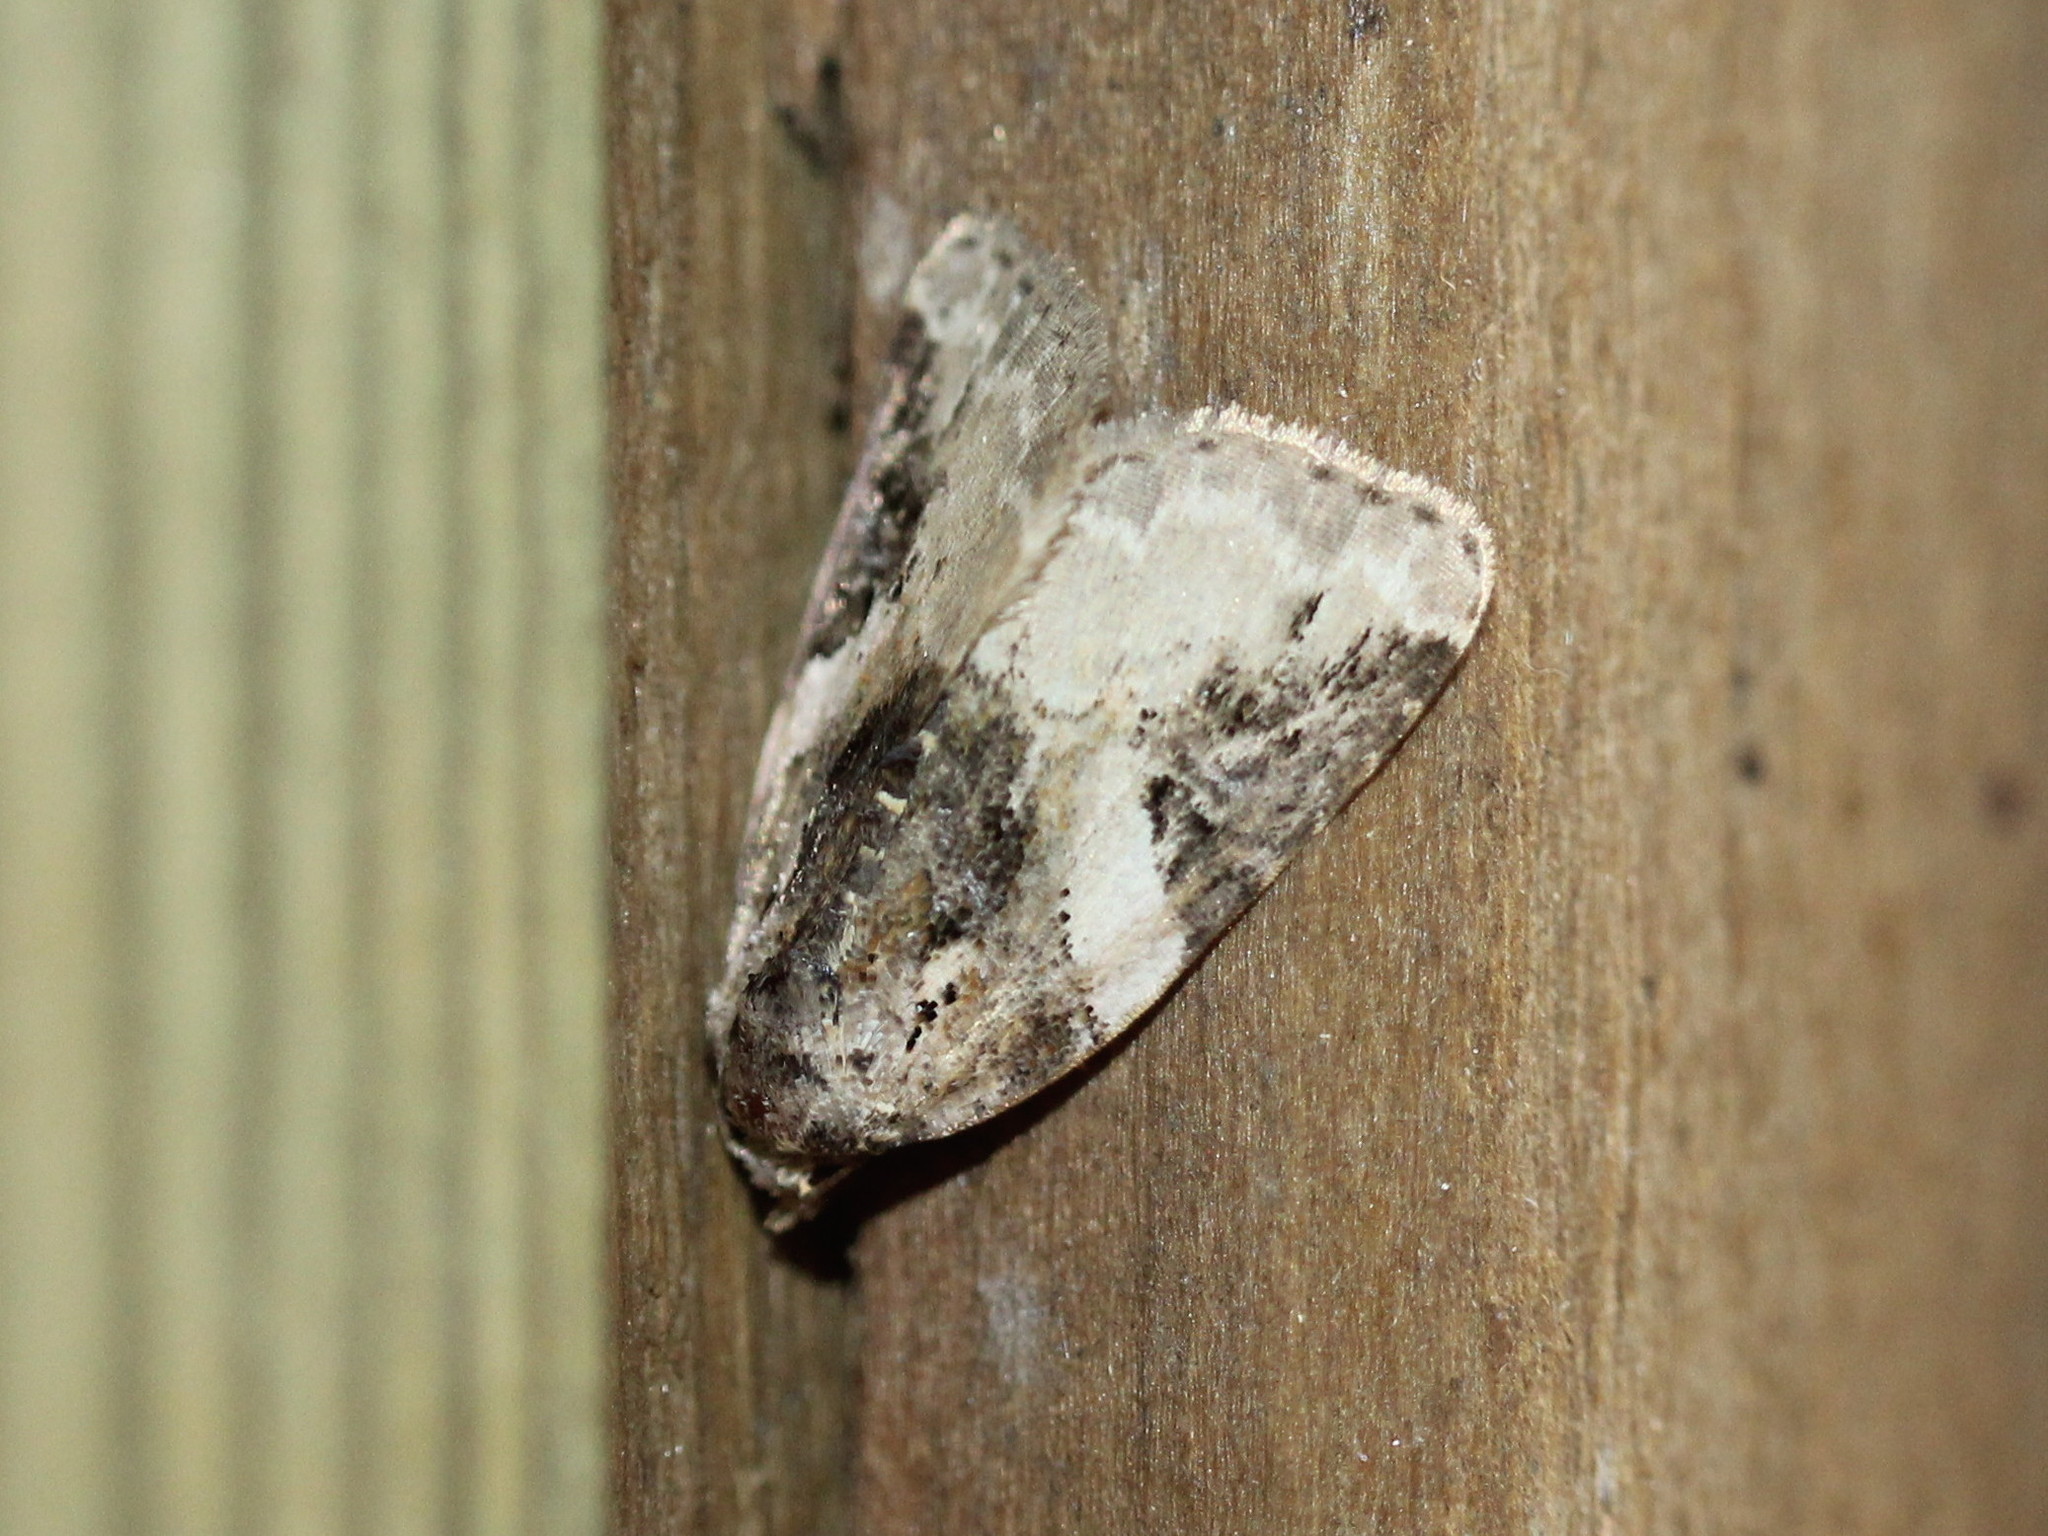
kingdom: Animalia
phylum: Arthropoda
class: Insecta
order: Lepidoptera
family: Noctuidae
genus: Pseudeustrotia
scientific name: Pseudeustrotia carneola
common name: Pink-barred lithacodia moth
